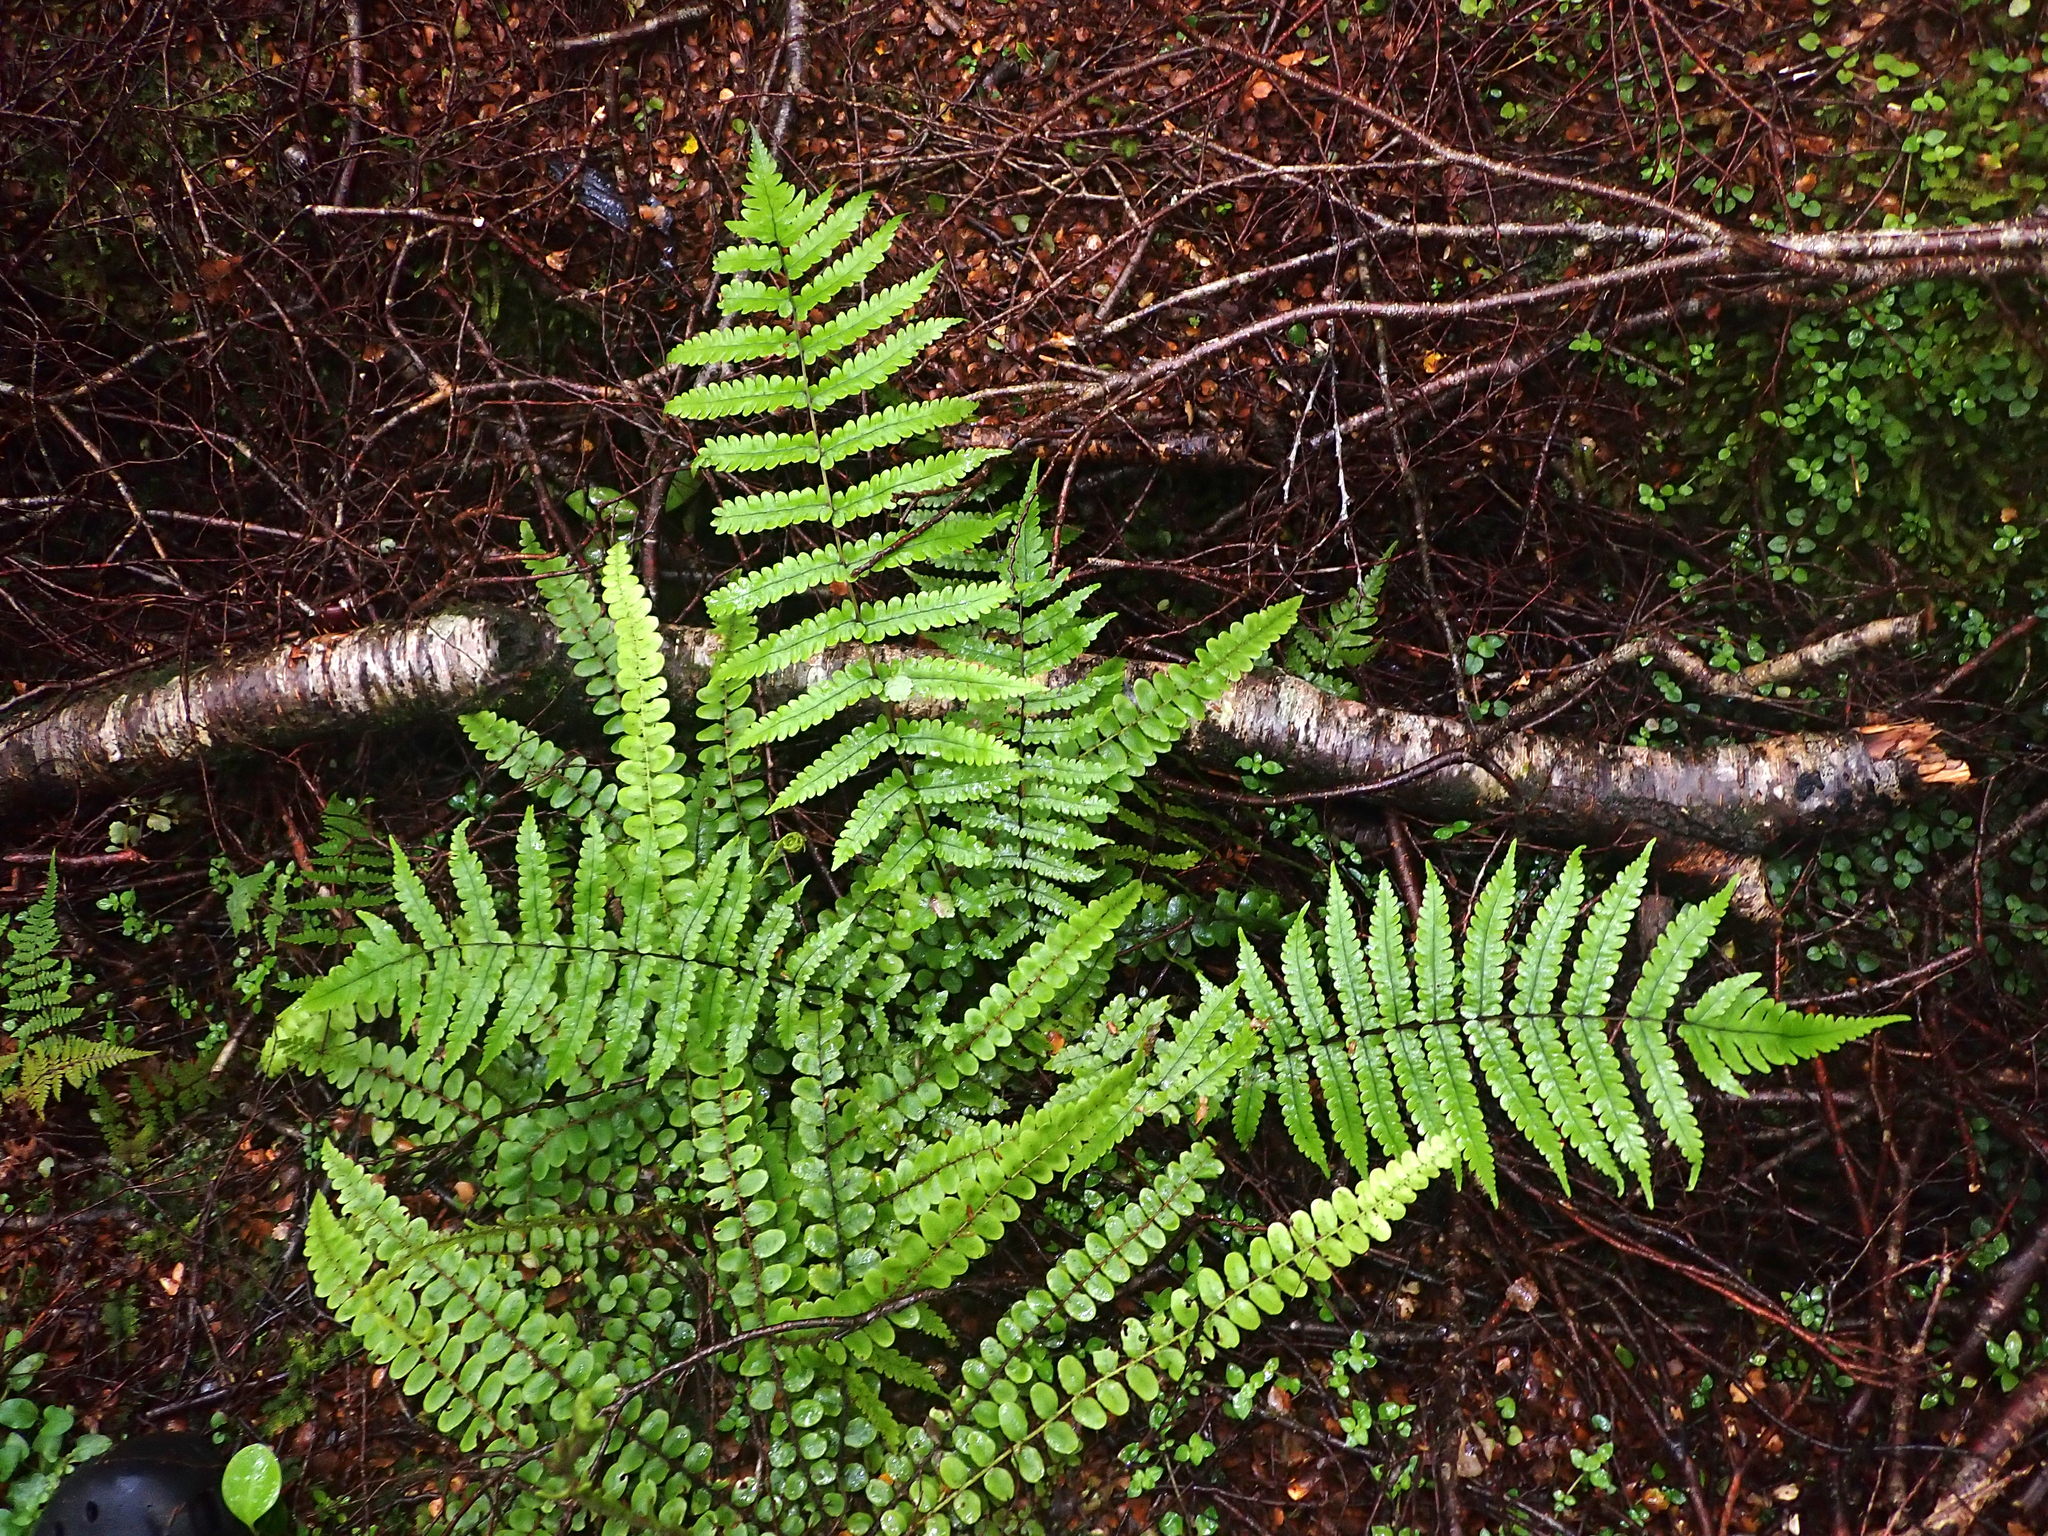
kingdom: Plantae
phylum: Tracheophyta
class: Polypodiopsida
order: Polypodiales
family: Thelypteridaceae
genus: Pakau
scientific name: Pakau pennigera
